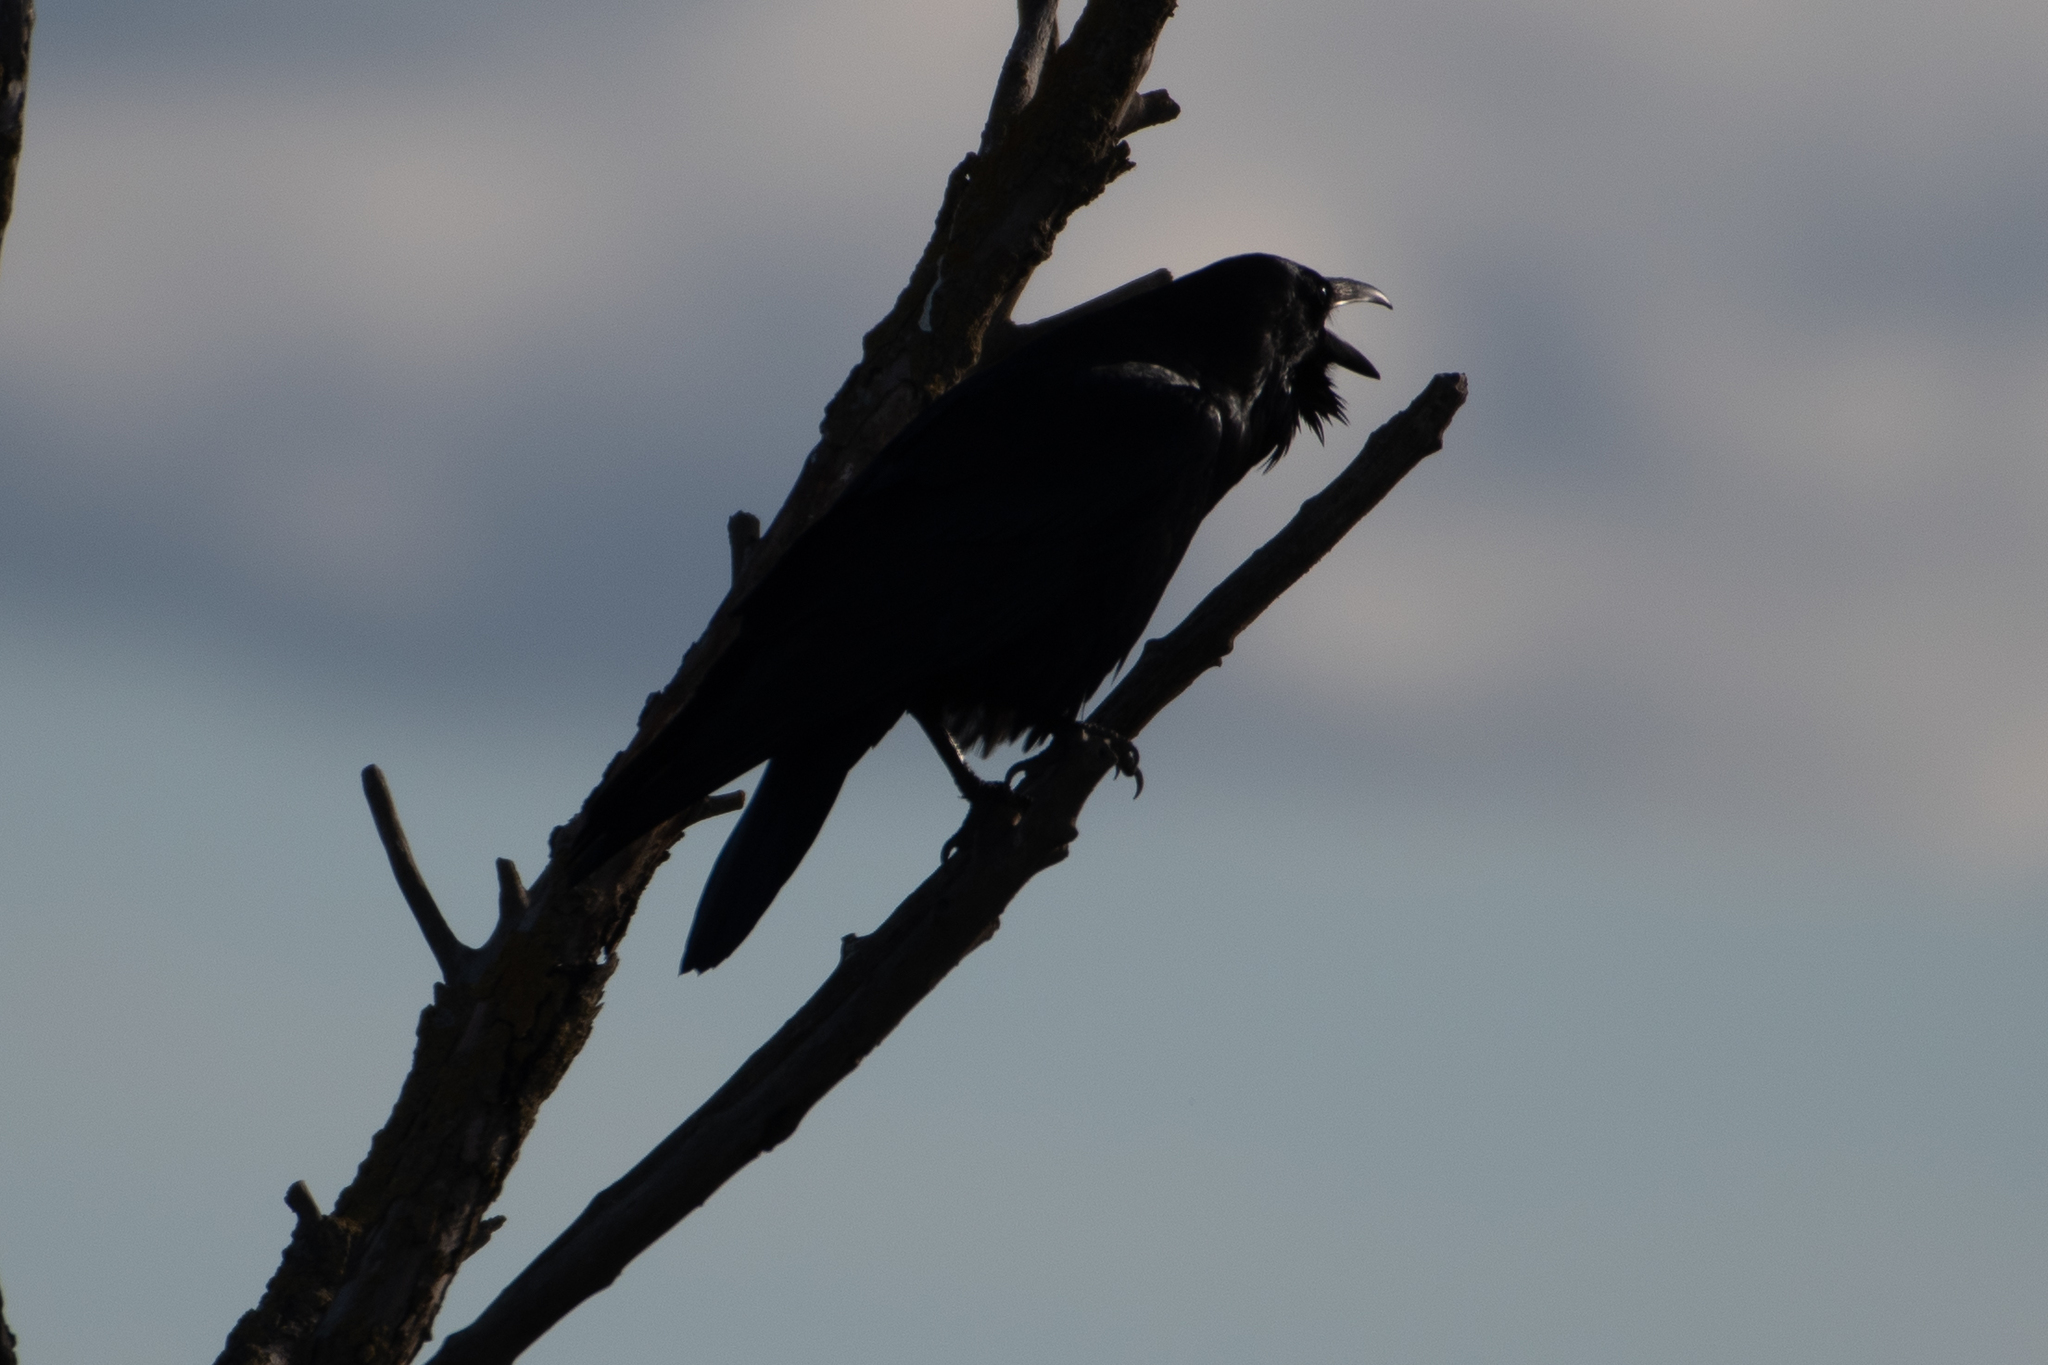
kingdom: Animalia
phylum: Chordata
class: Aves
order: Passeriformes
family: Corvidae
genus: Corvus
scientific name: Corvus corax
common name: Common raven
